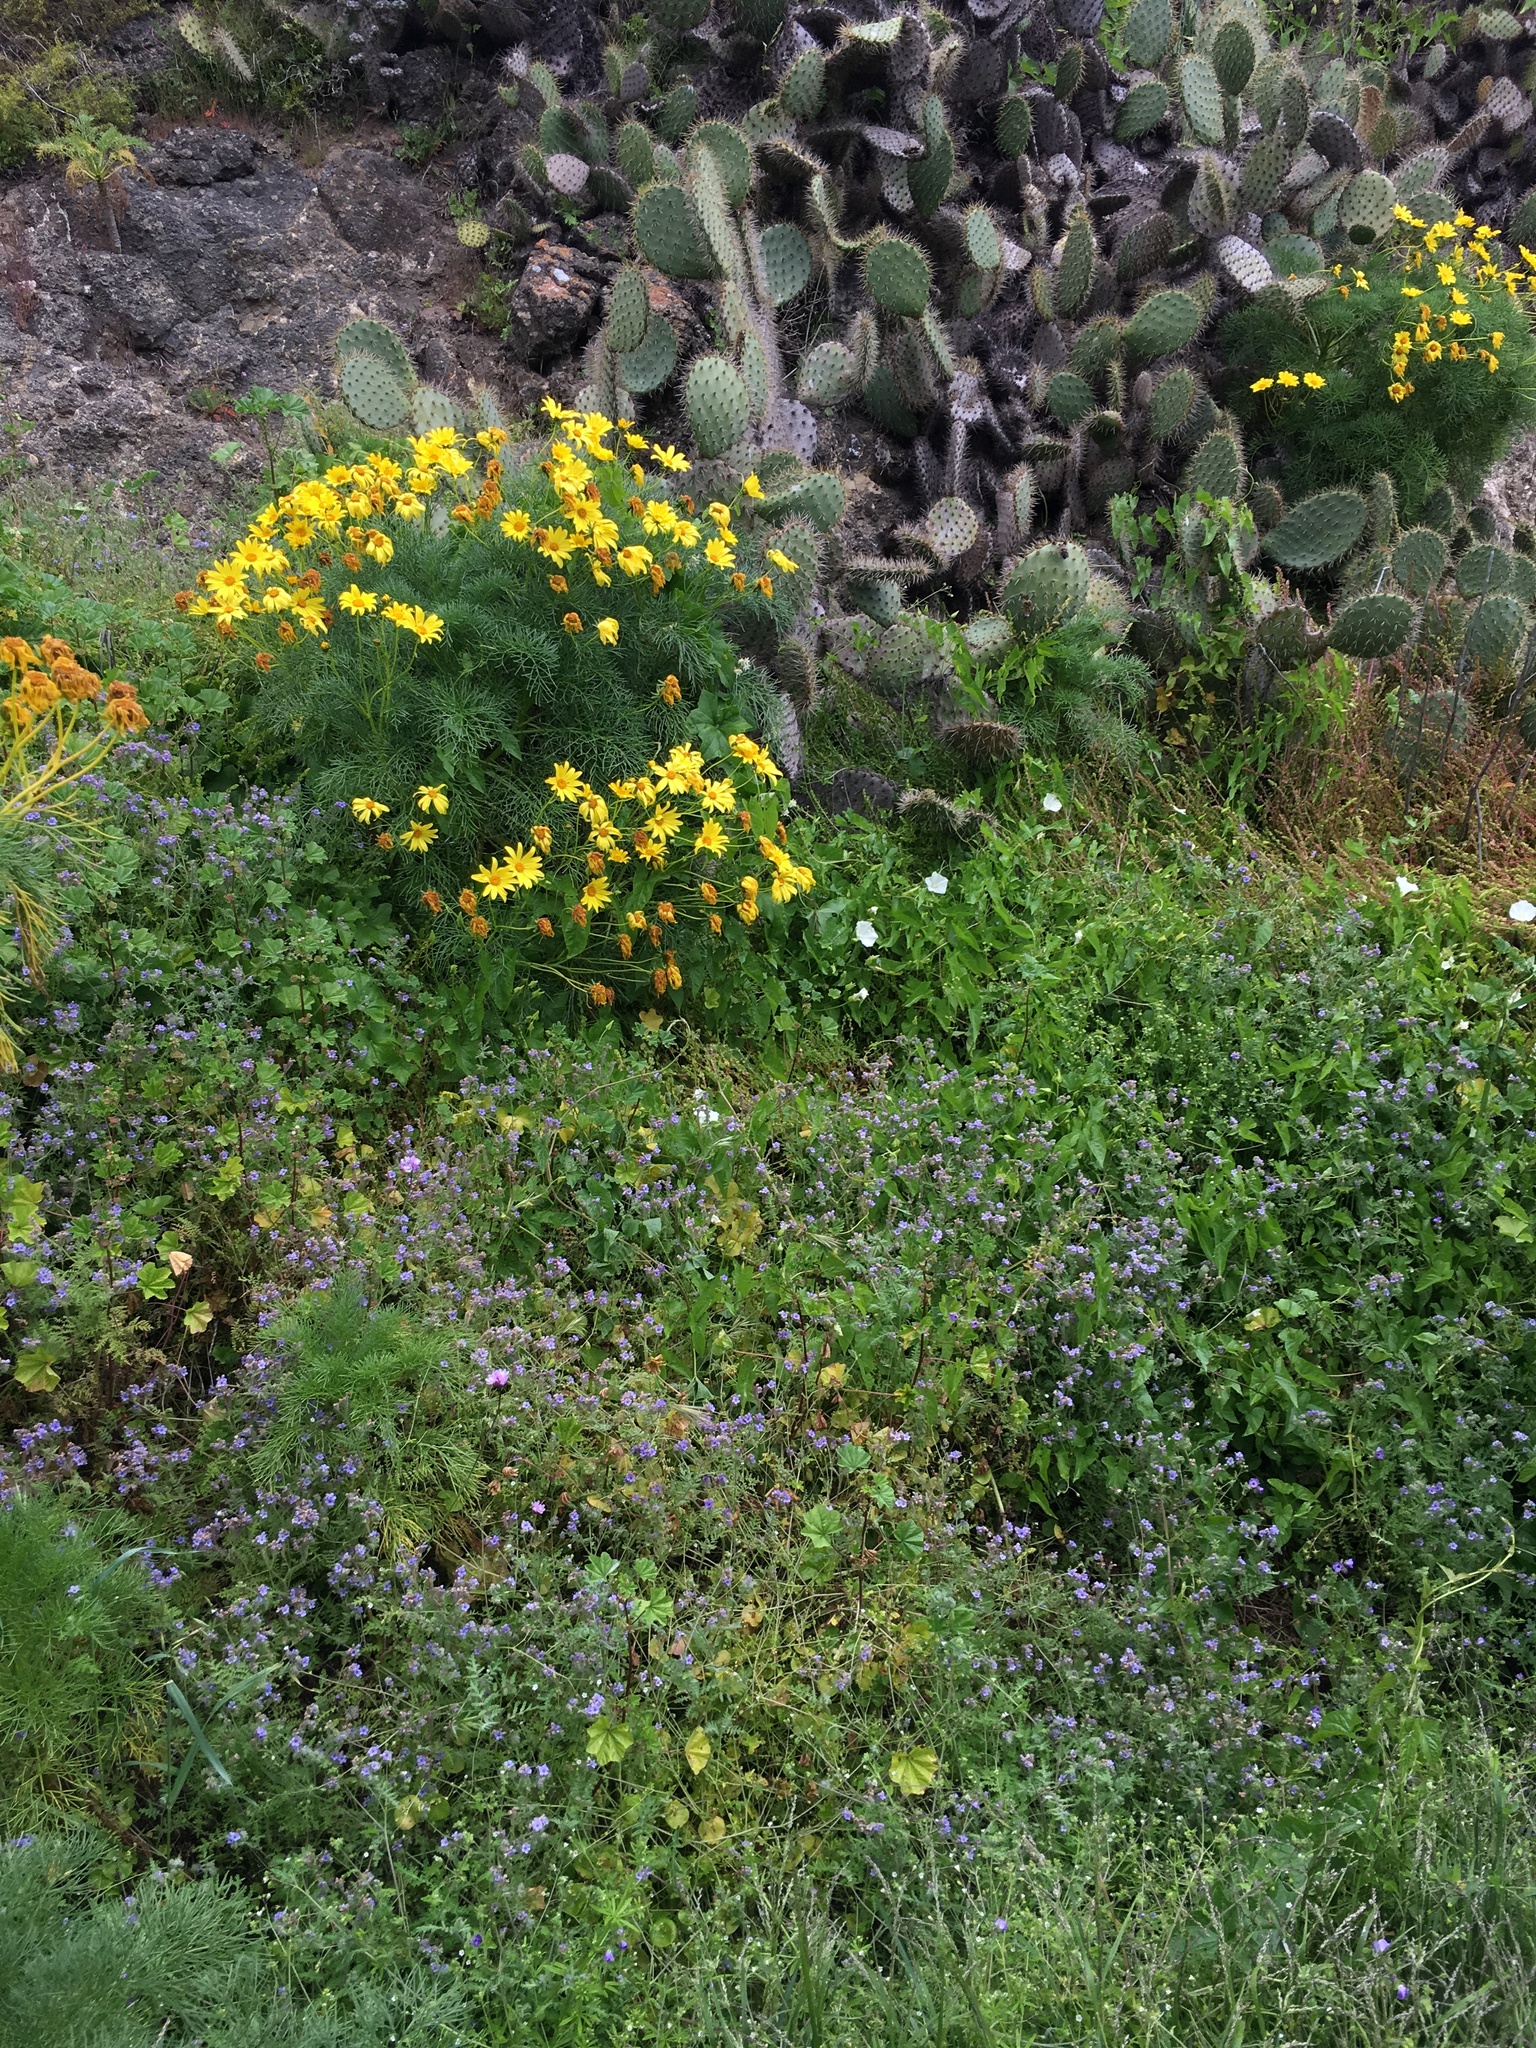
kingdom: Plantae
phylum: Tracheophyta
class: Magnoliopsida
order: Boraginales
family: Hydrophyllaceae
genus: Phacelia
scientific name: Phacelia distans
